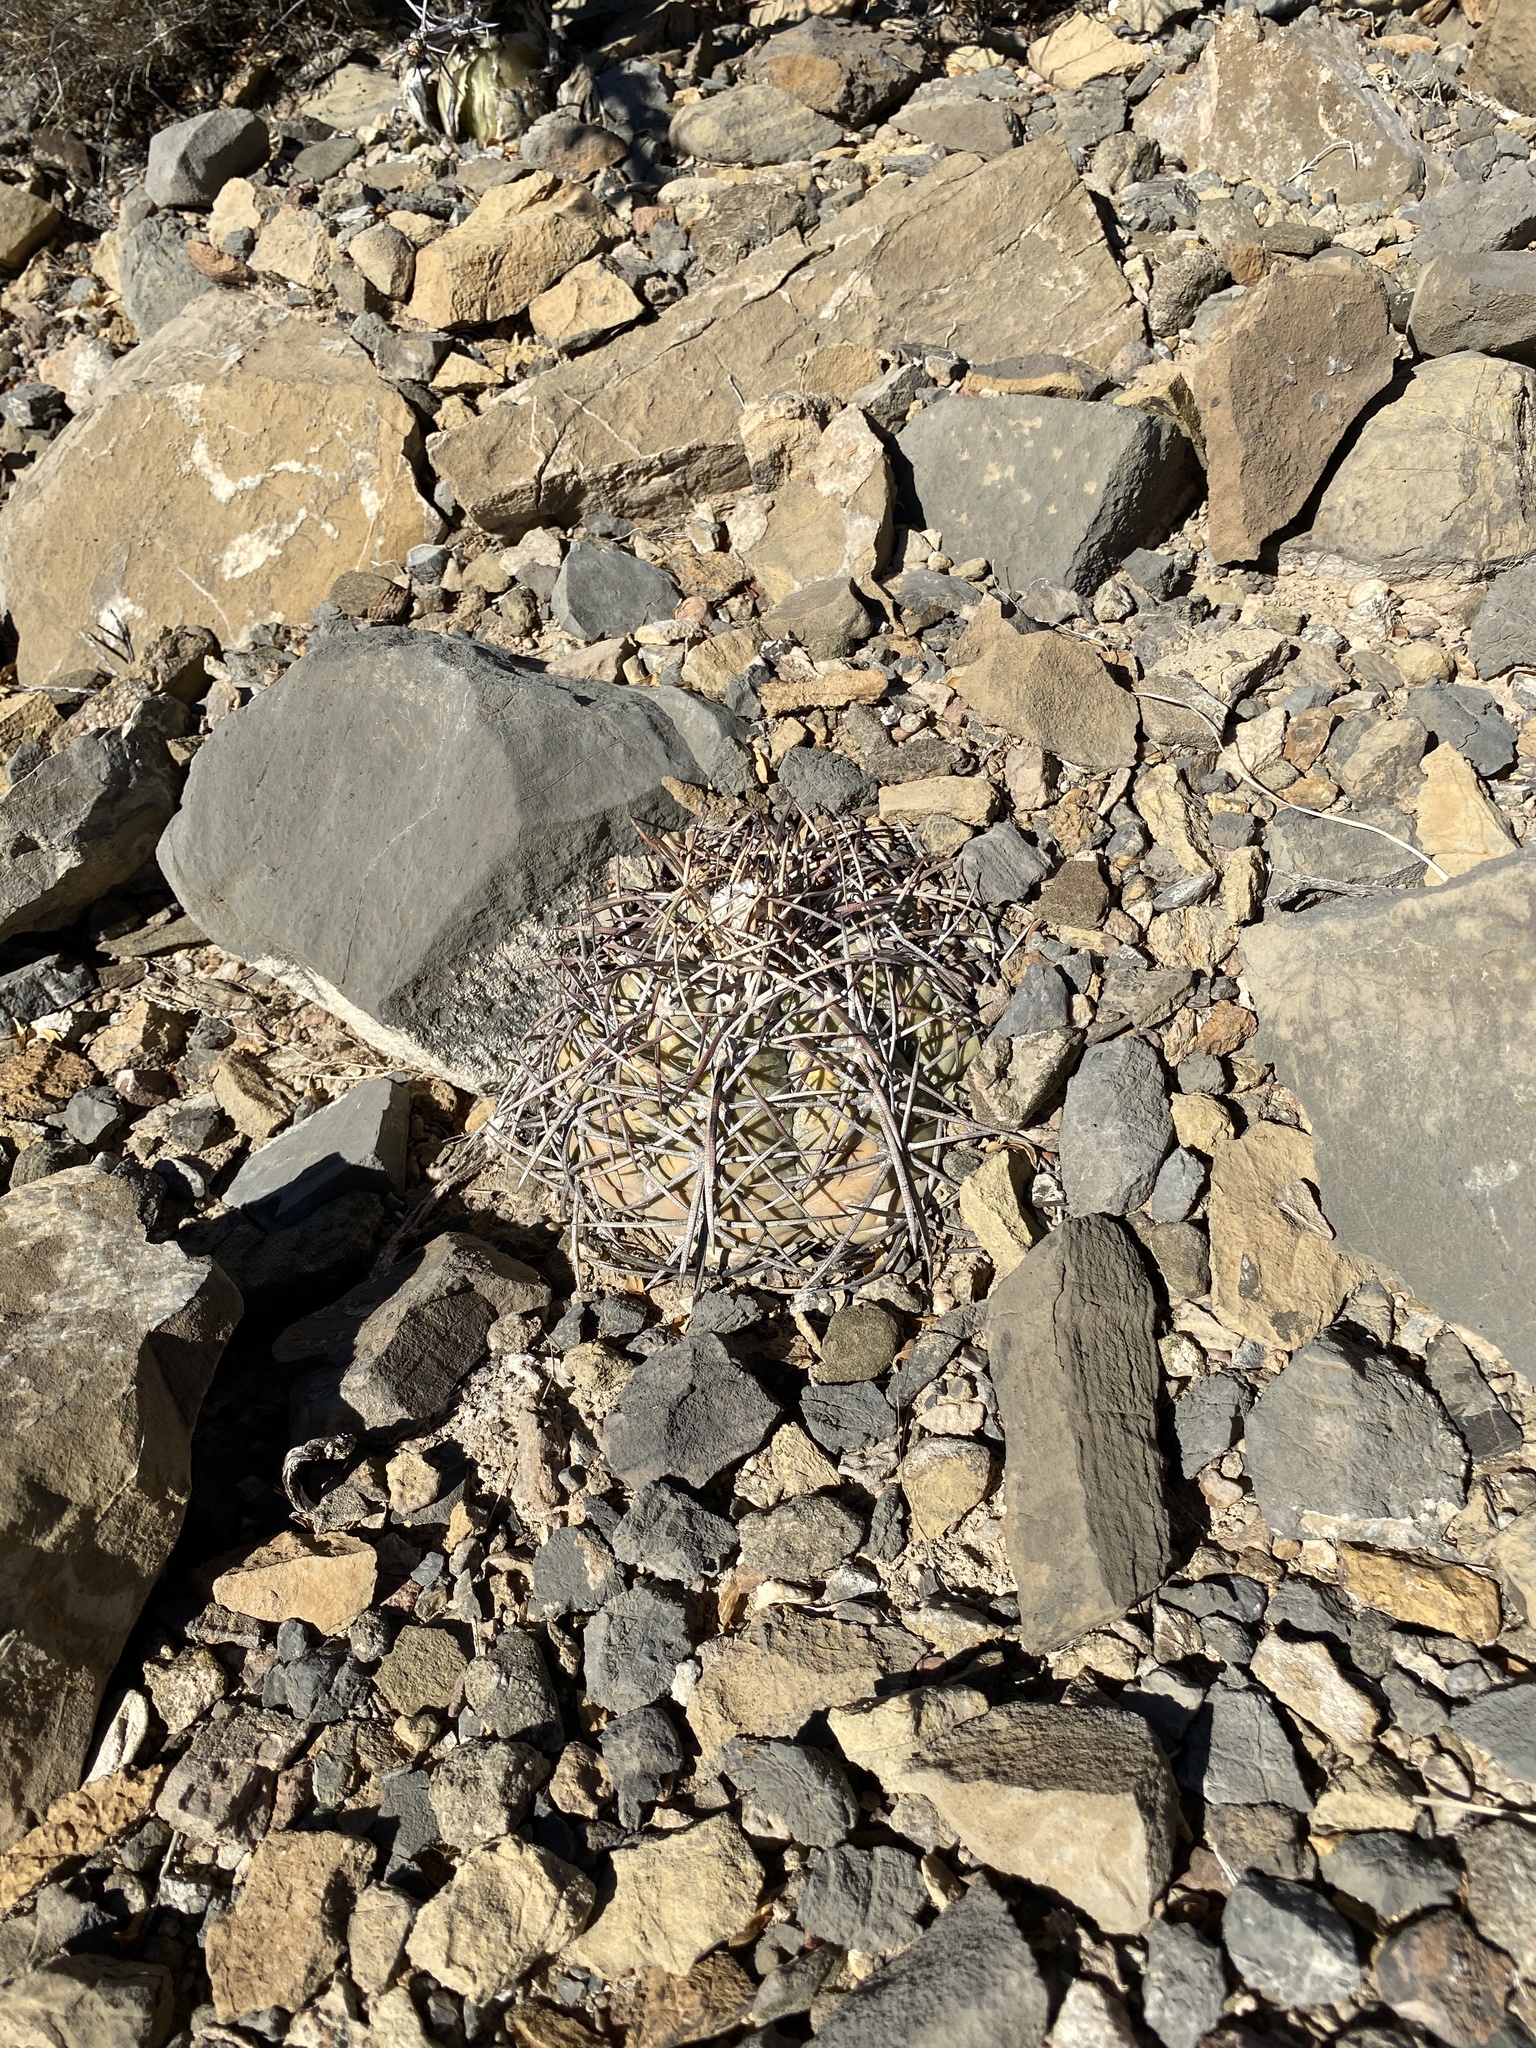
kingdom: Plantae
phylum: Tracheophyta
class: Magnoliopsida
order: Caryophyllales
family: Cactaceae
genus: Echinocactus
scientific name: Echinocactus horizonthalonius
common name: Devilshead
